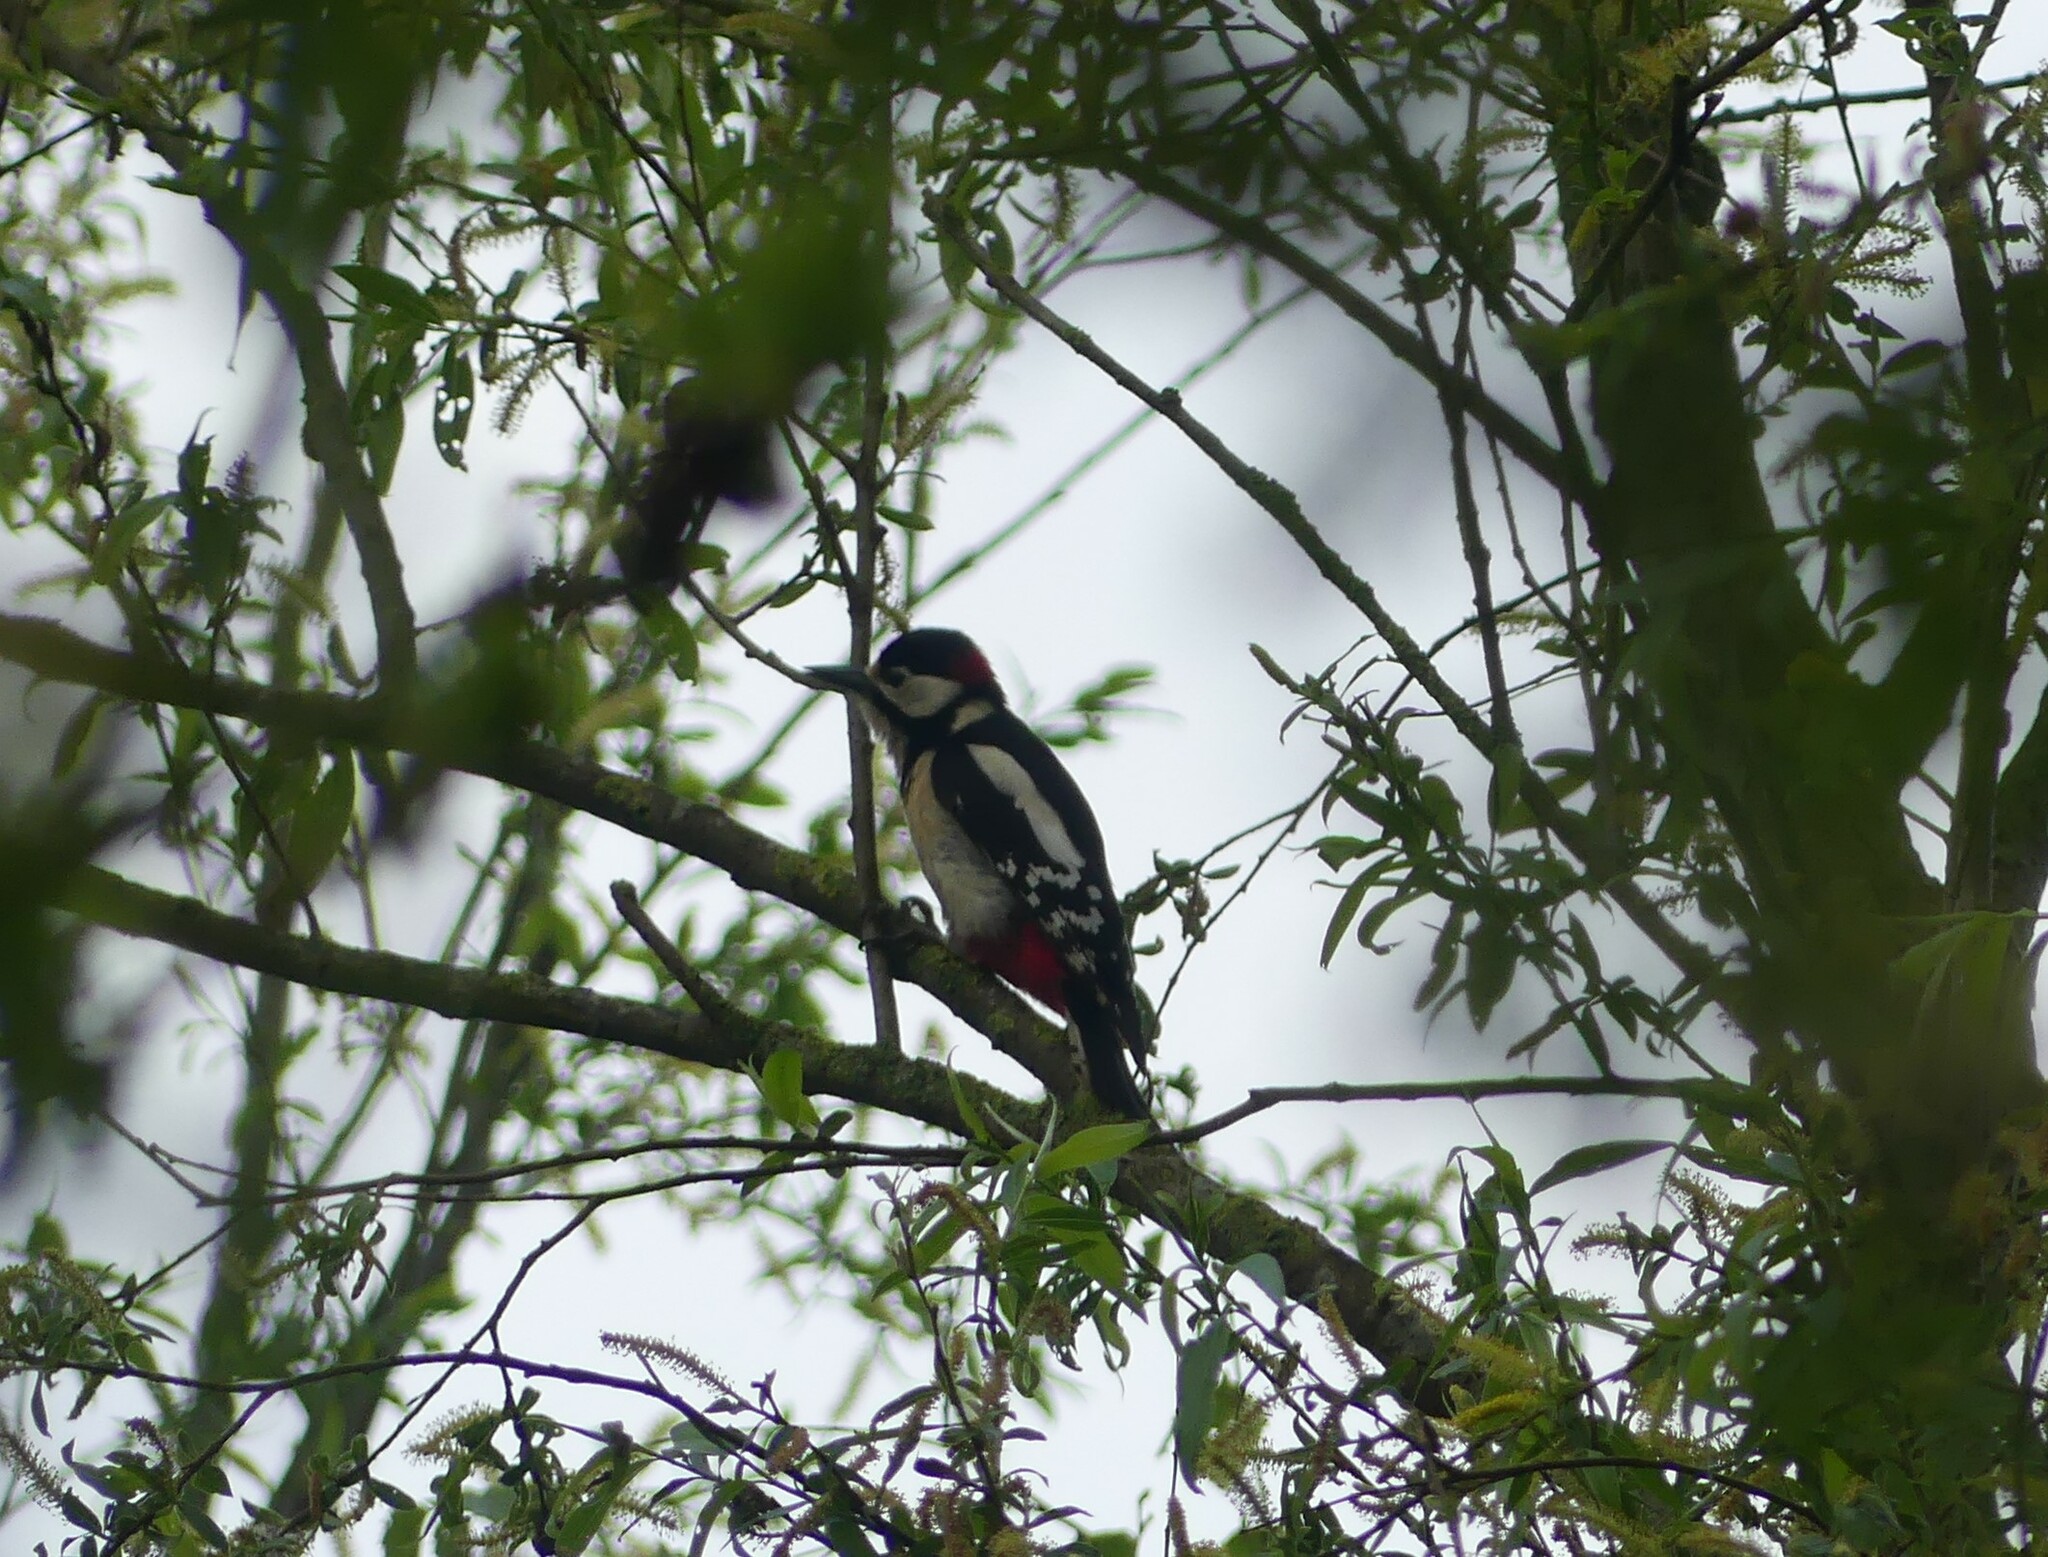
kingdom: Animalia
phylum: Chordata
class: Aves
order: Piciformes
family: Picidae
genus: Dendrocopos
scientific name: Dendrocopos major
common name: Great spotted woodpecker
